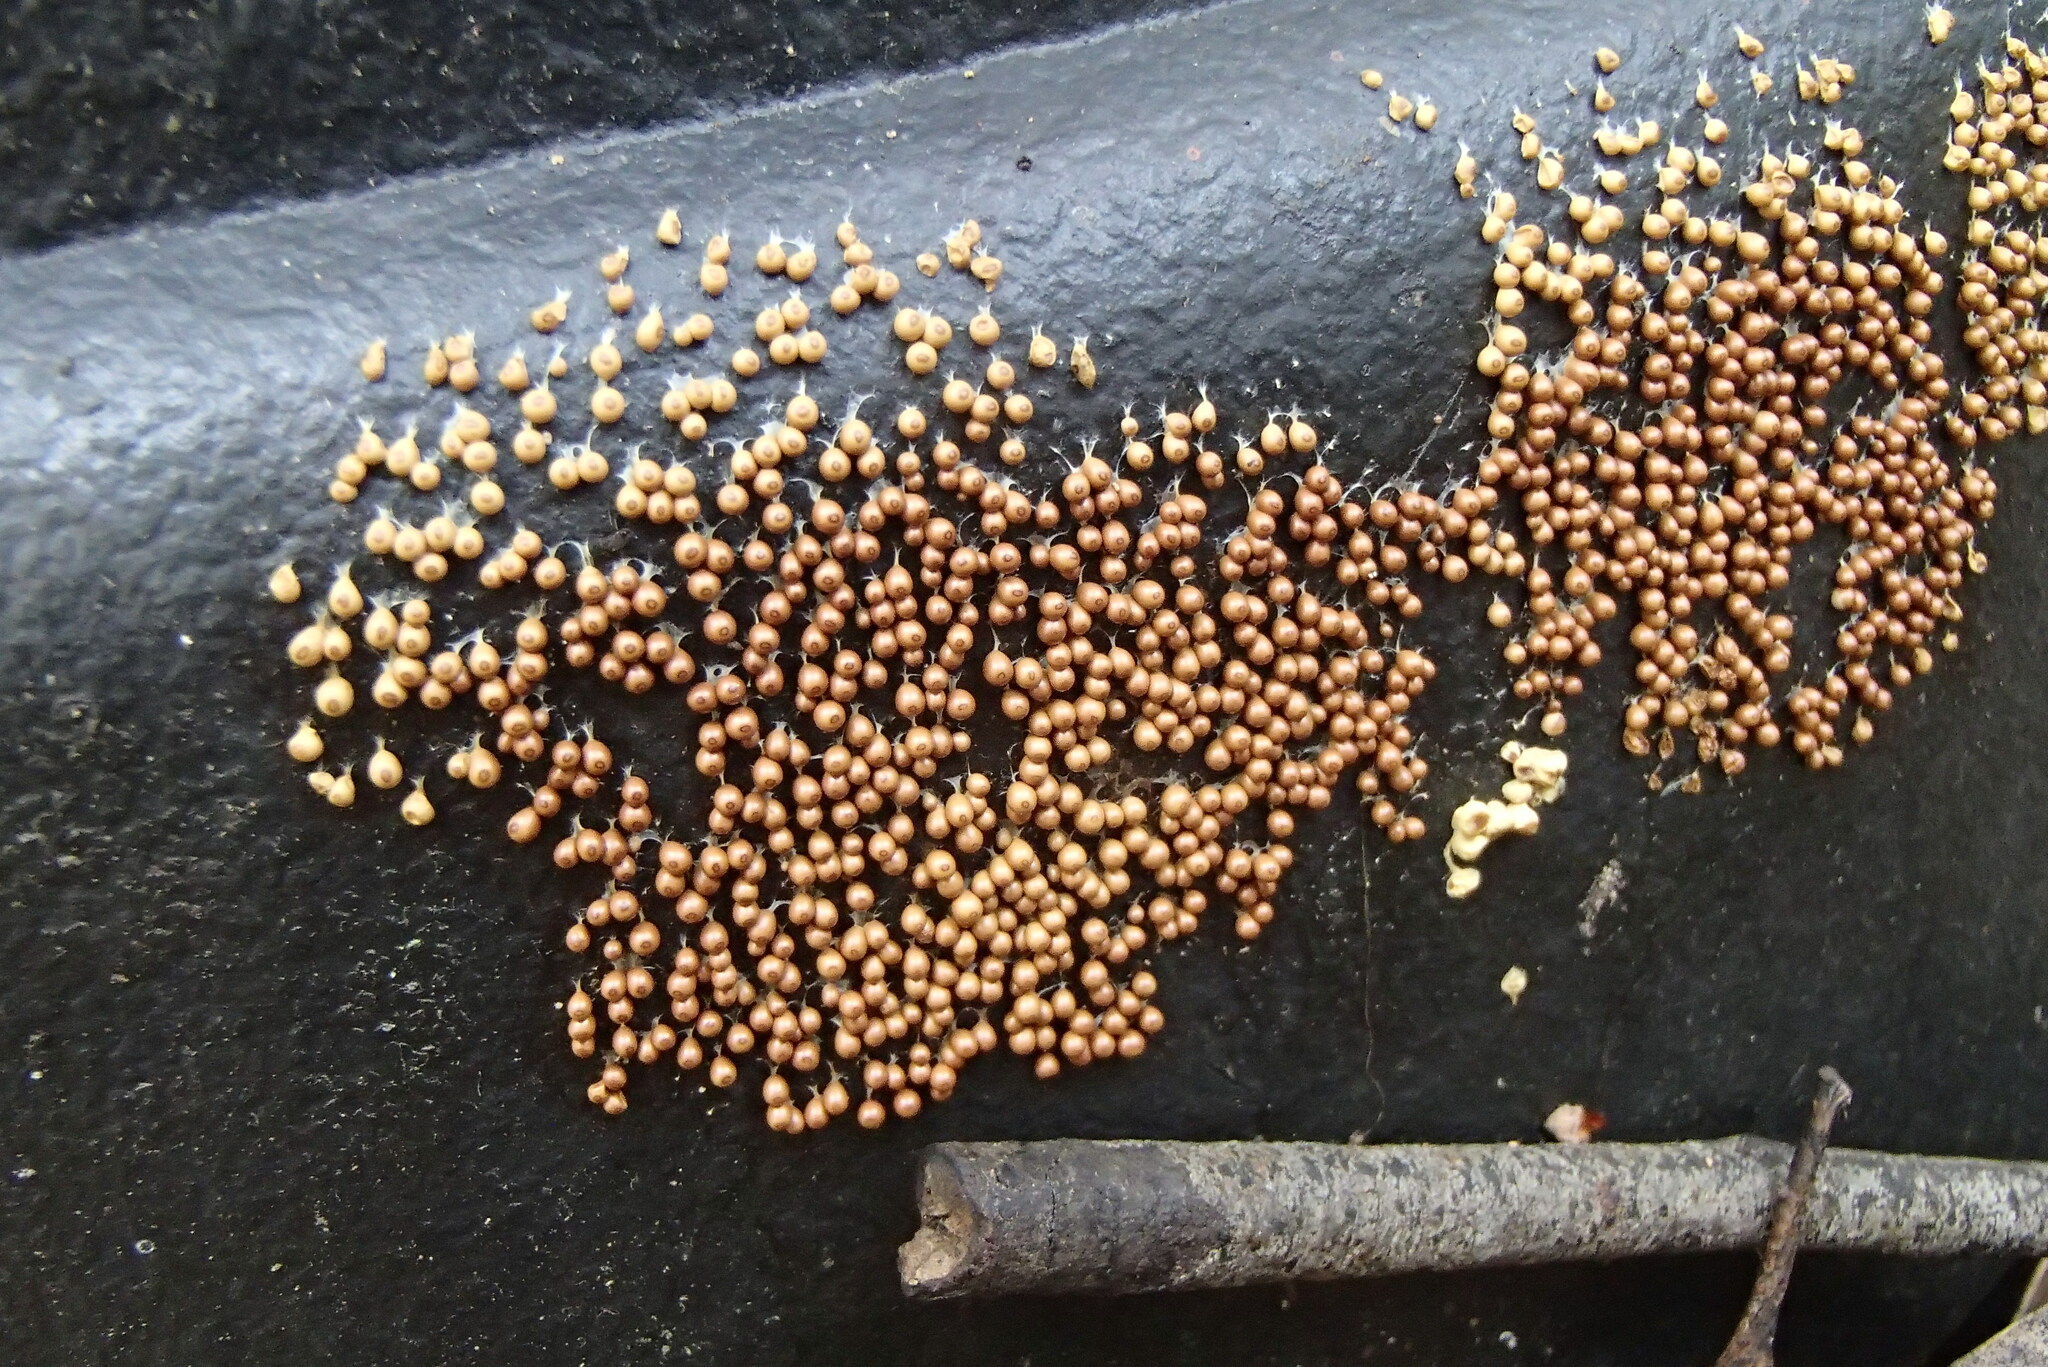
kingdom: Protozoa
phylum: Mycetozoa
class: Myxomycetes
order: Physarales
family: Physaraceae
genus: Leocarpus
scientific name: Leocarpus fragilis
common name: Insect-egg slime
